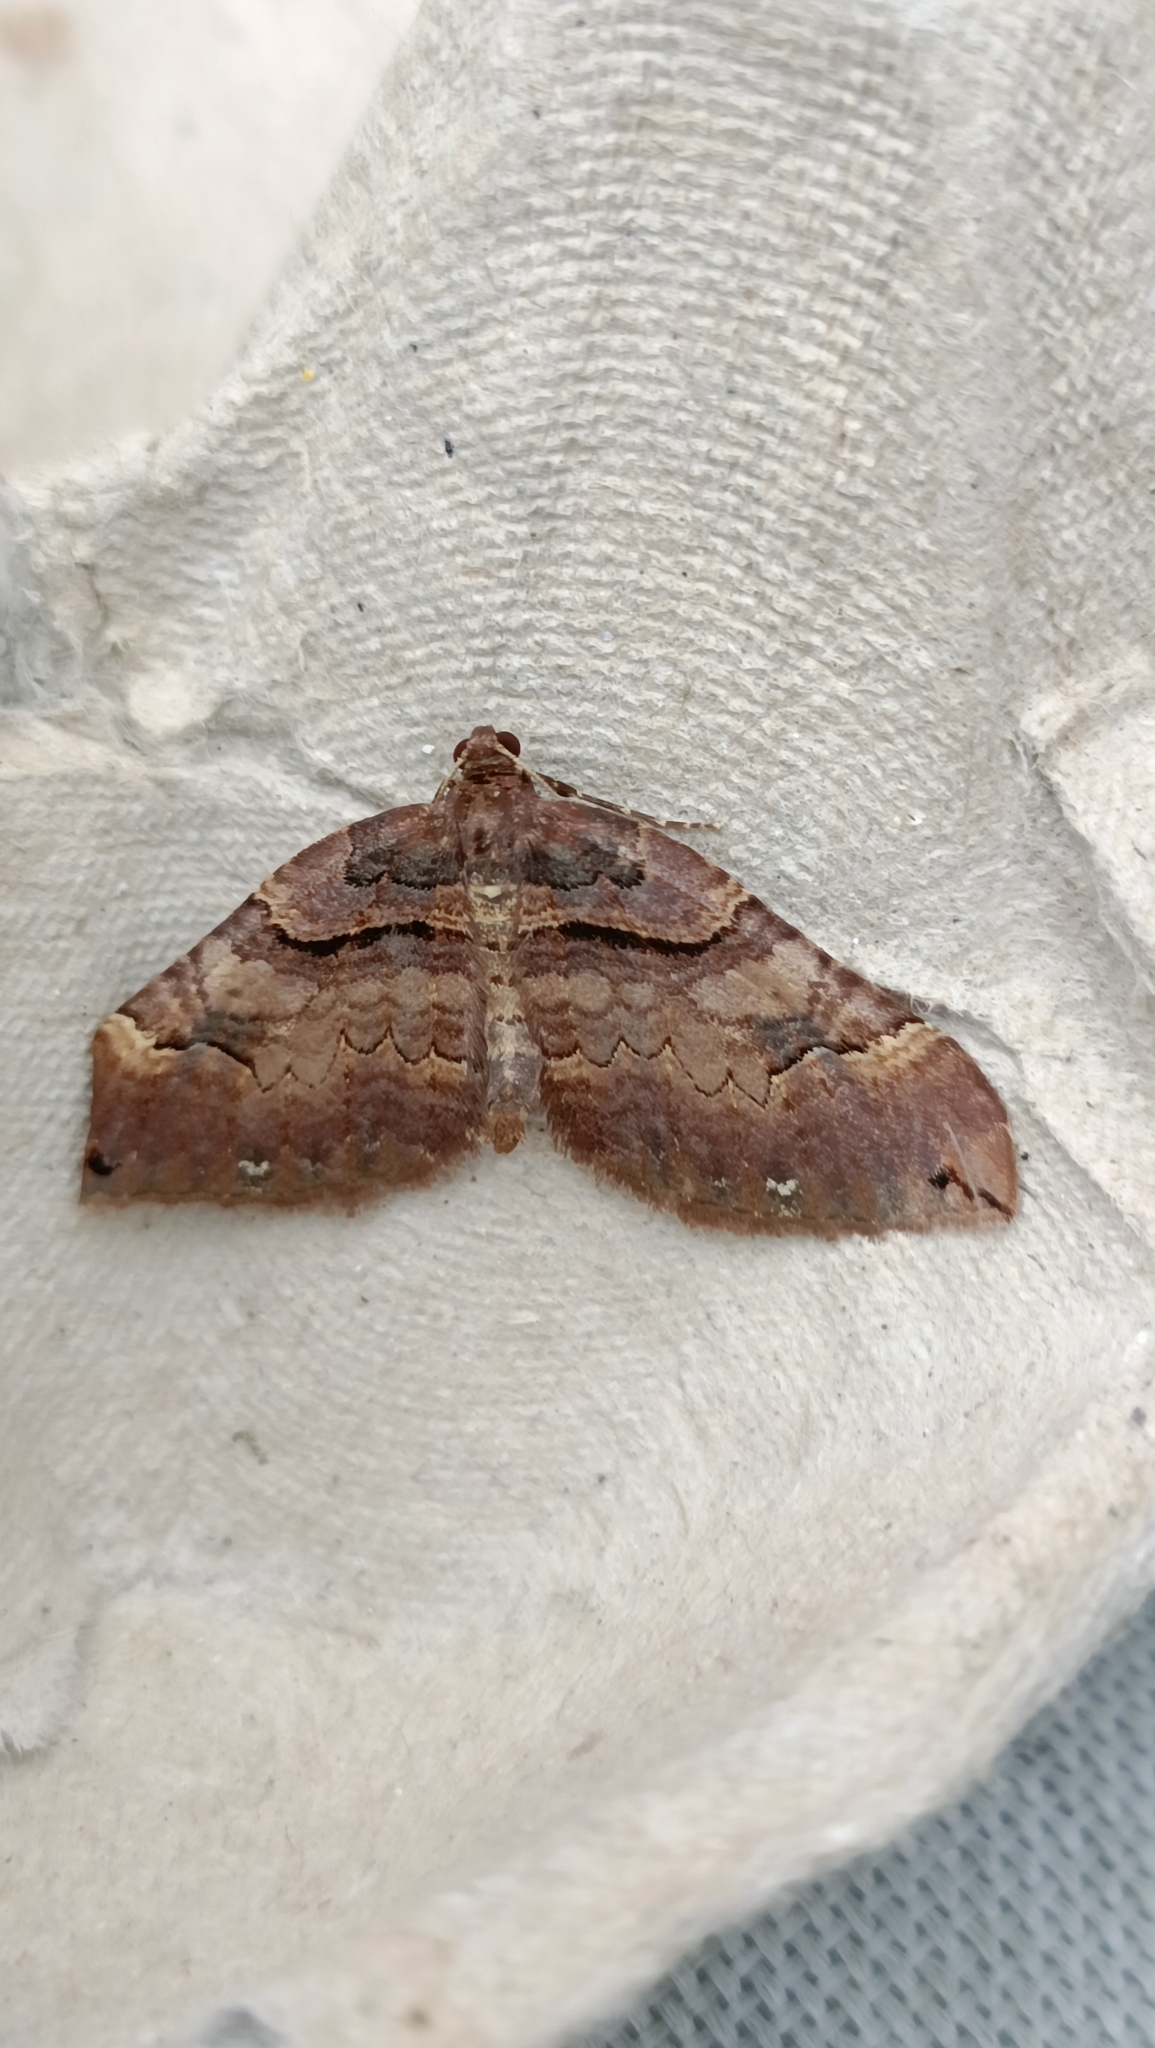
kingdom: Animalia
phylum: Arthropoda
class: Insecta
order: Lepidoptera
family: Geometridae
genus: Anticlea
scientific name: Anticlea badiata
